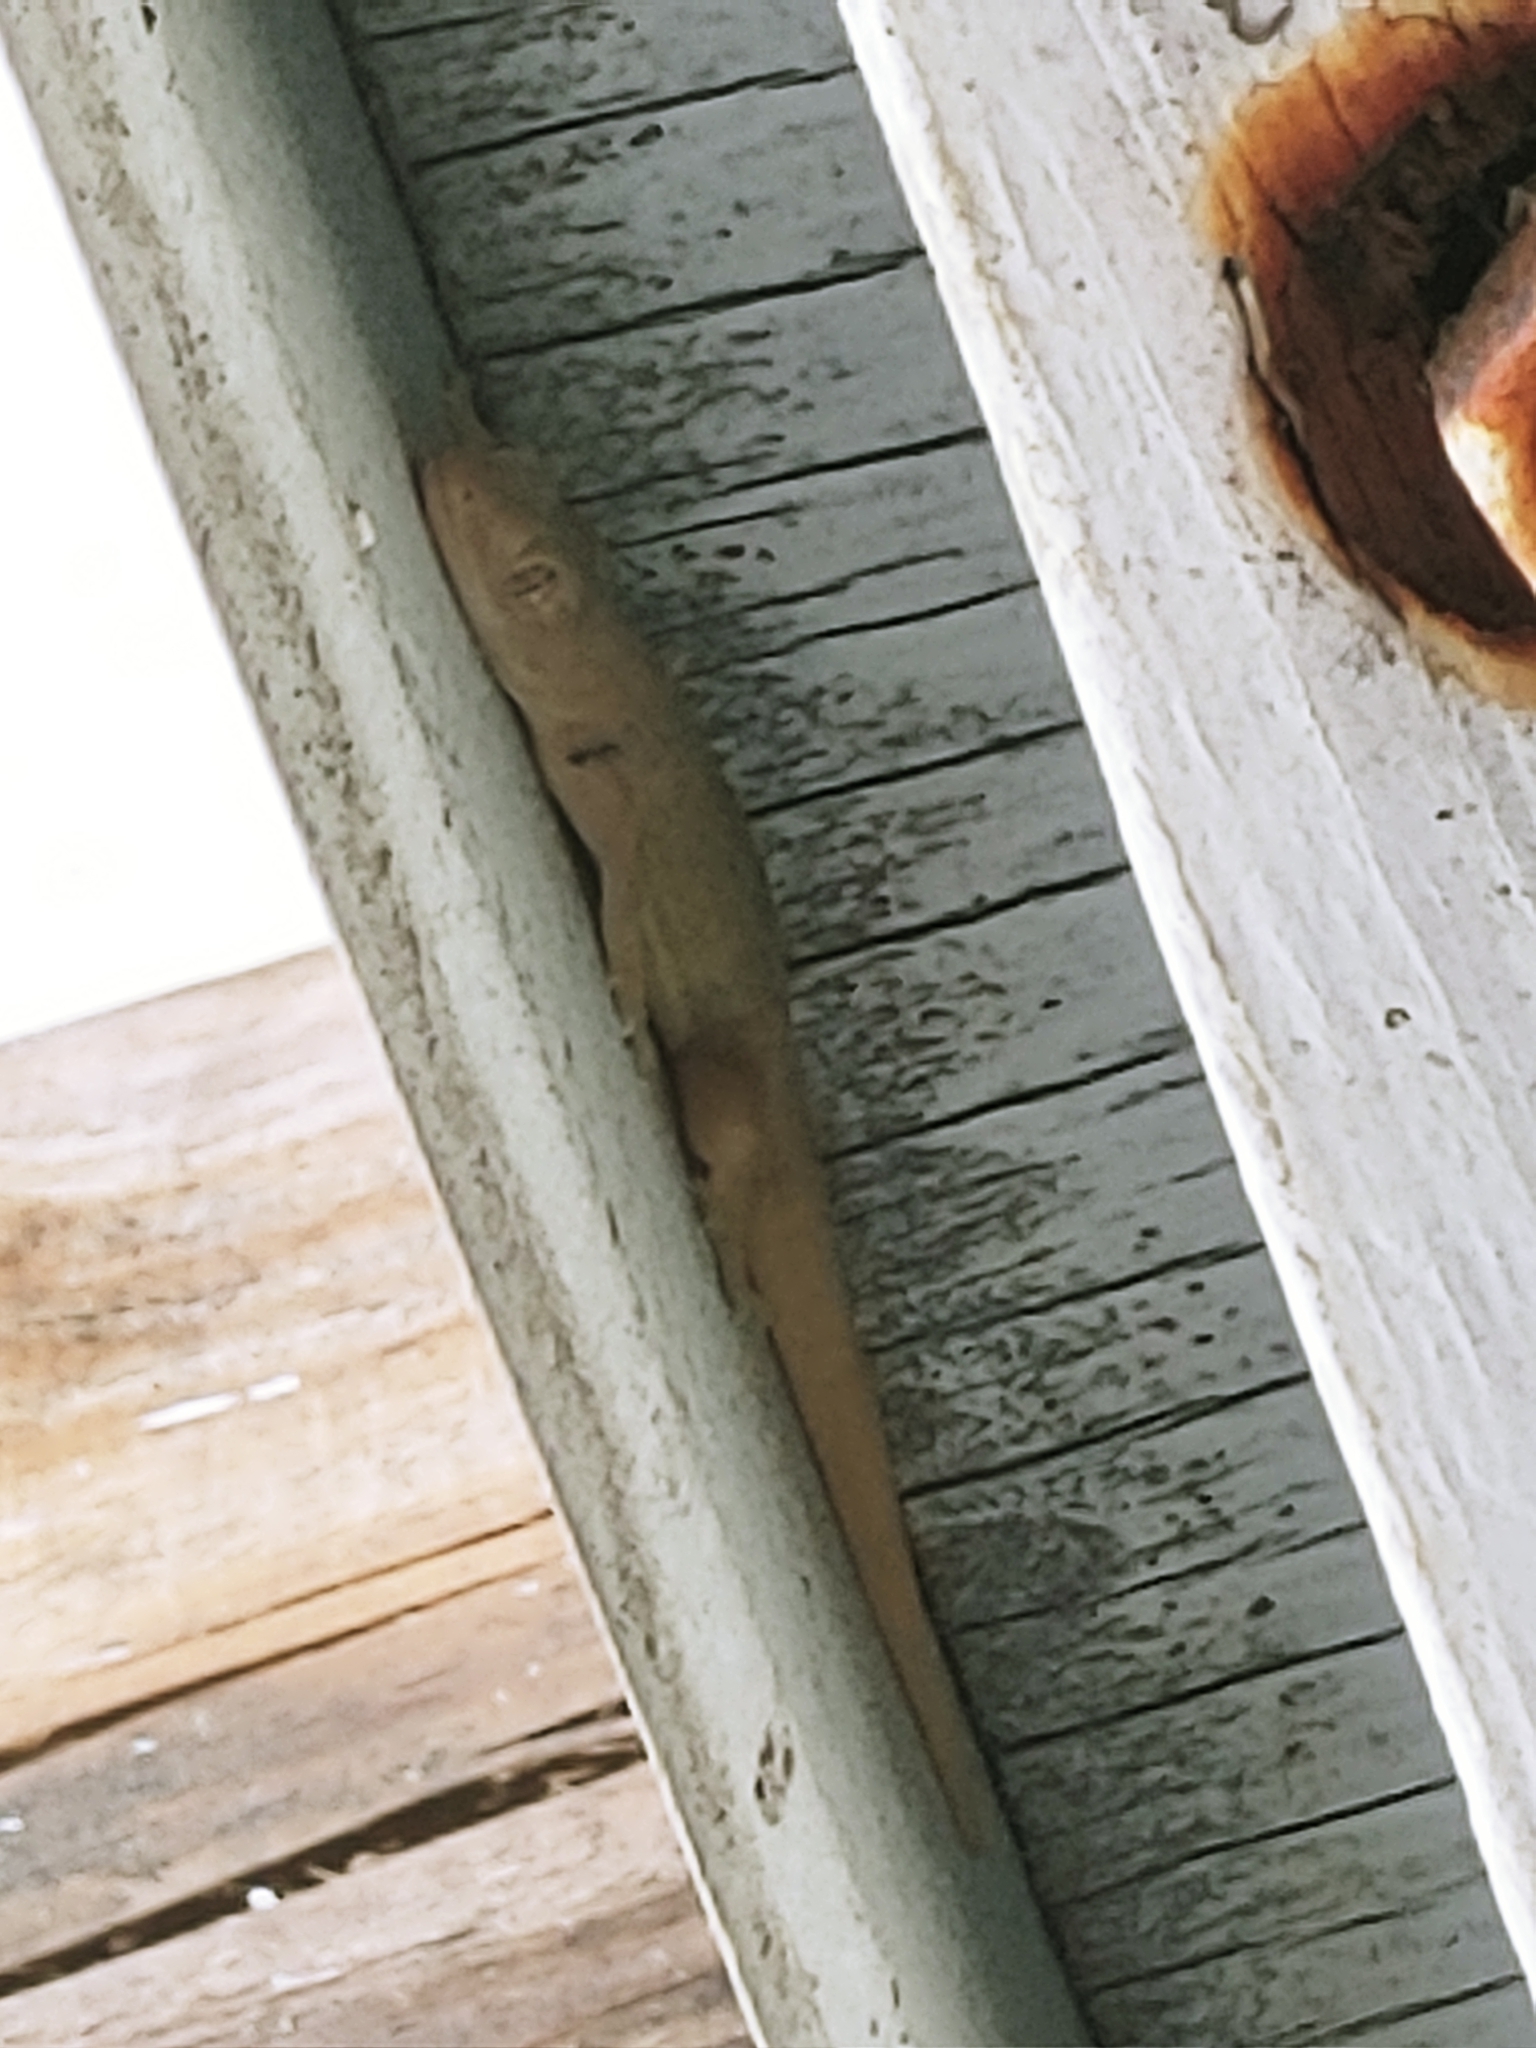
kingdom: Animalia
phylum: Chordata
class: Squamata
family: Gekkonidae
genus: Hemidactylus
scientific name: Hemidactylus mabouia
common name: House gecko
